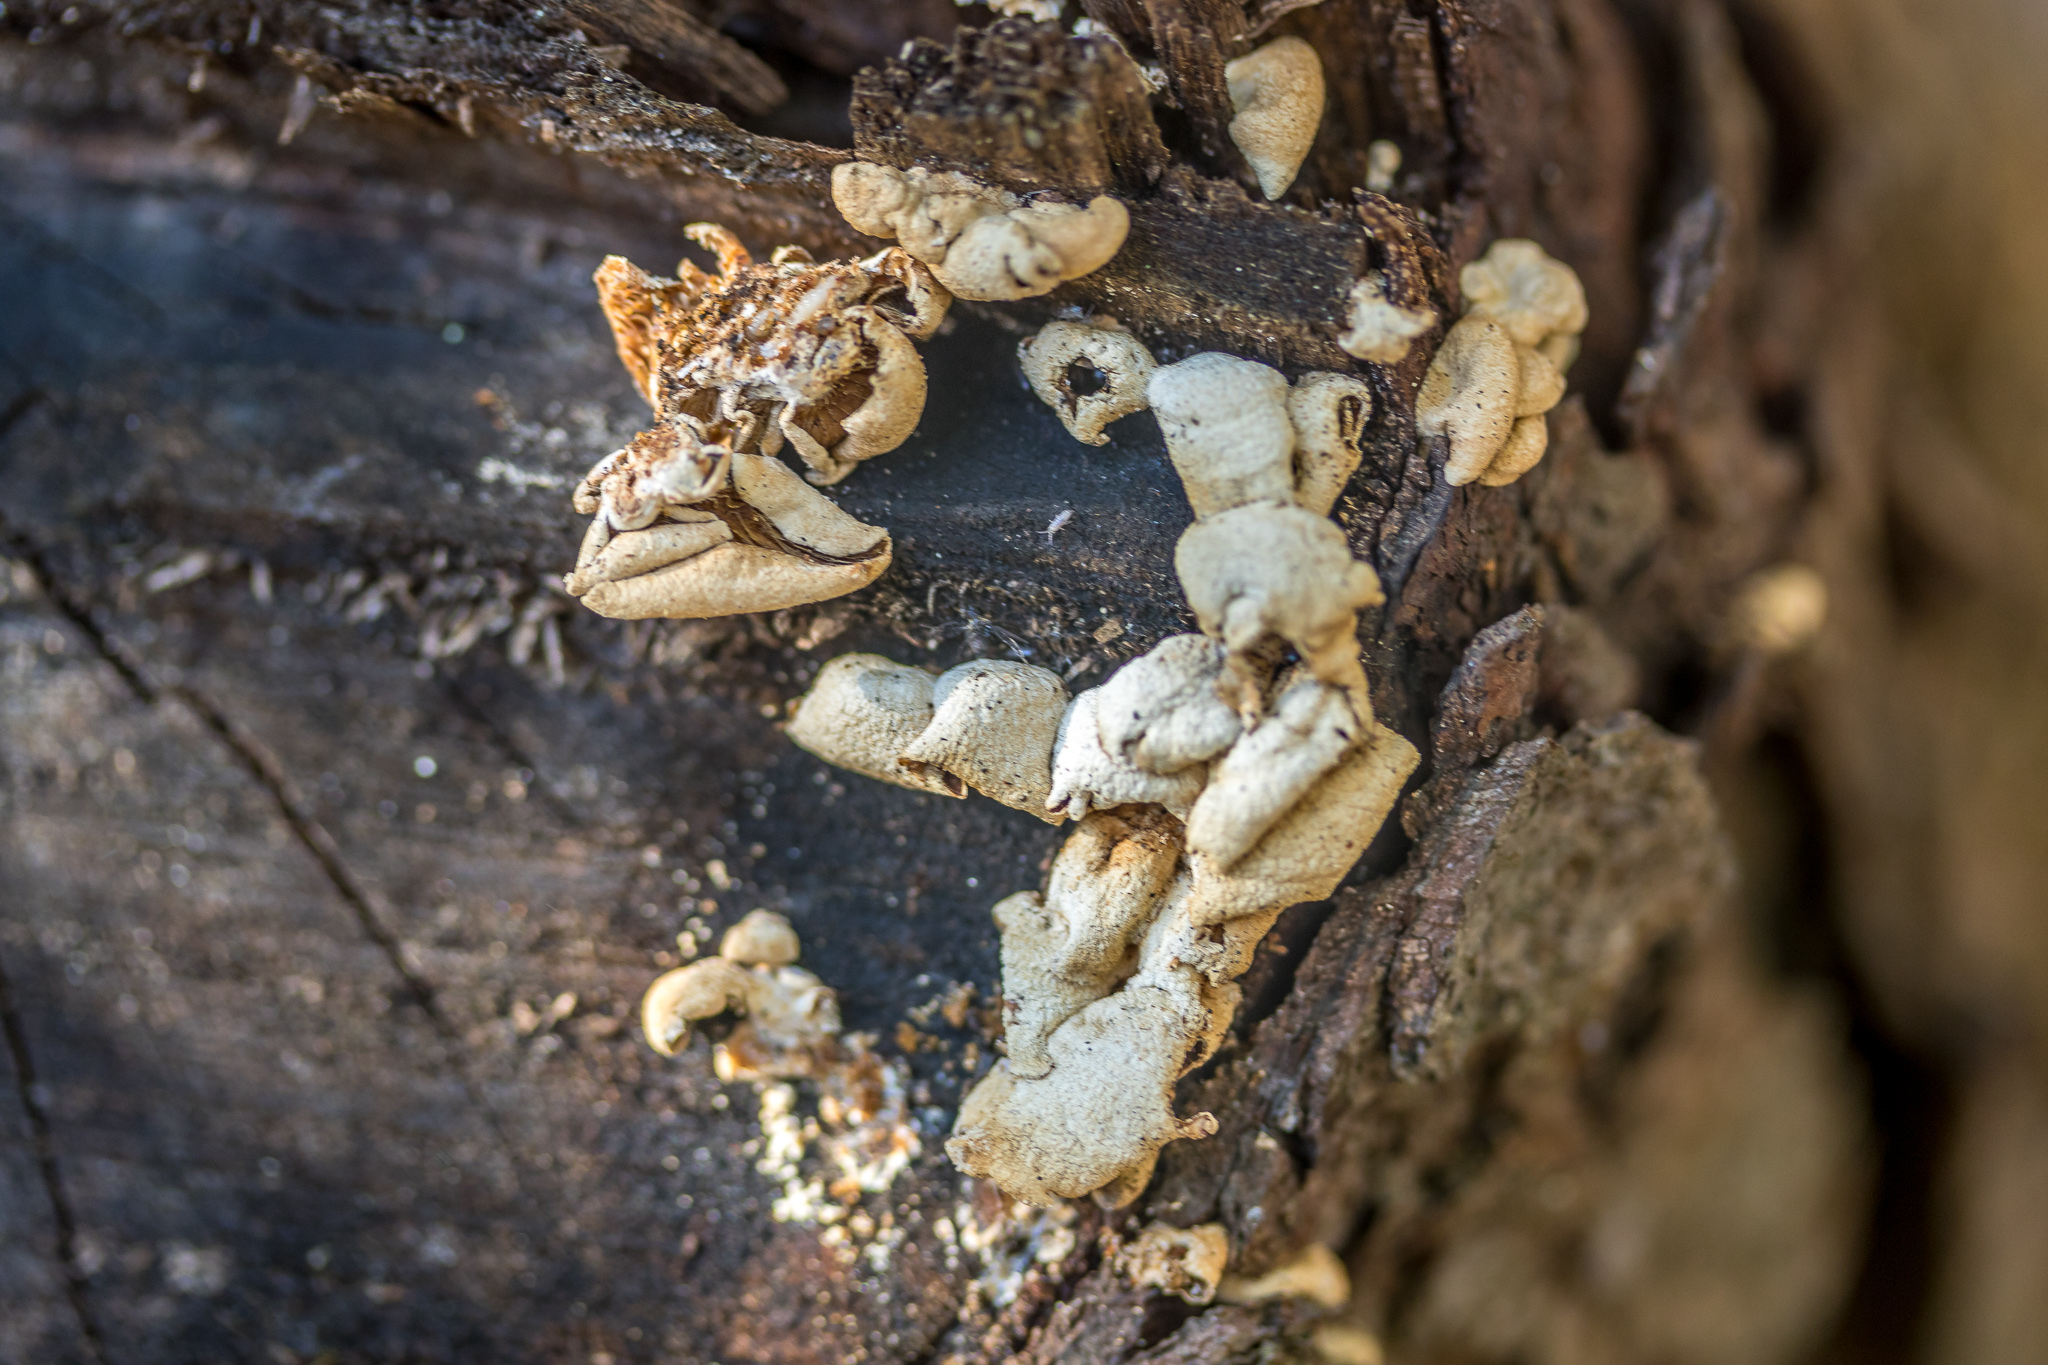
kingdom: Fungi
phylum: Basidiomycota
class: Agaricomycetes
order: Agaricales
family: Mycenaceae
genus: Panellus
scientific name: Panellus stipticus
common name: Bitter oysterling
